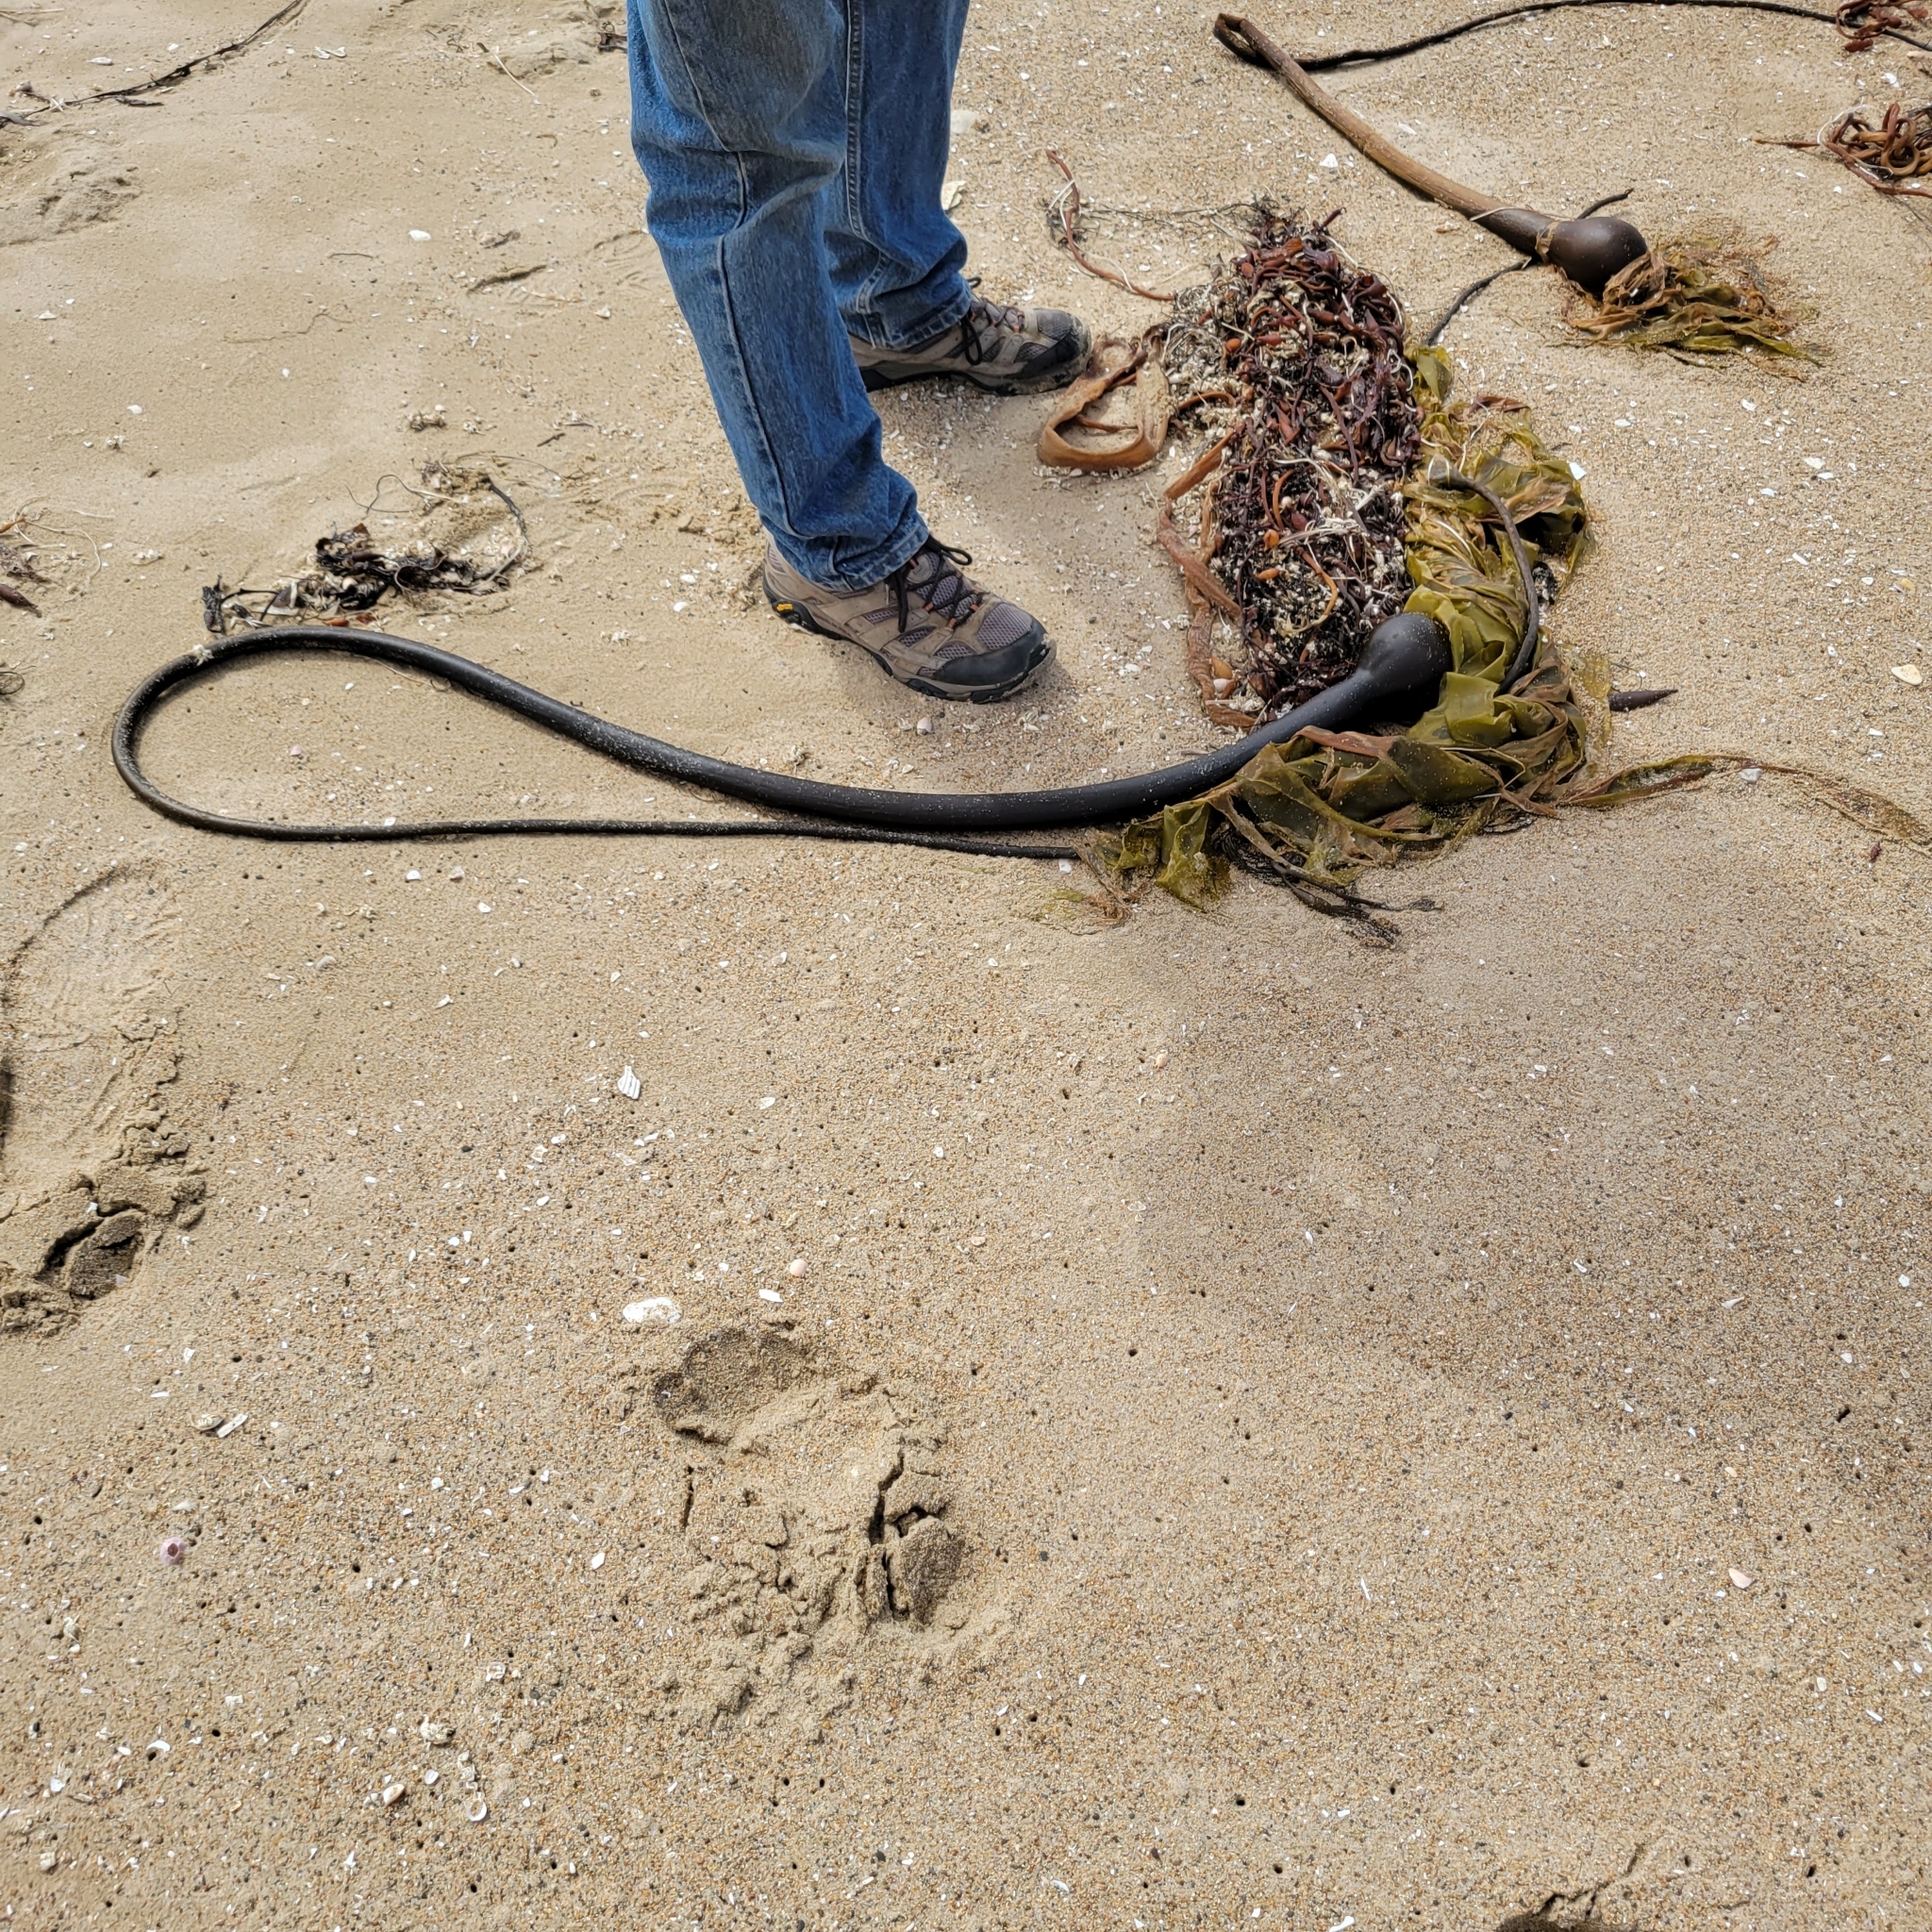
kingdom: Chromista
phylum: Ochrophyta
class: Phaeophyceae
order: Laminariales
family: Laminariaceae
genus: Nereocystis
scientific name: Nereocystis luetkeana
